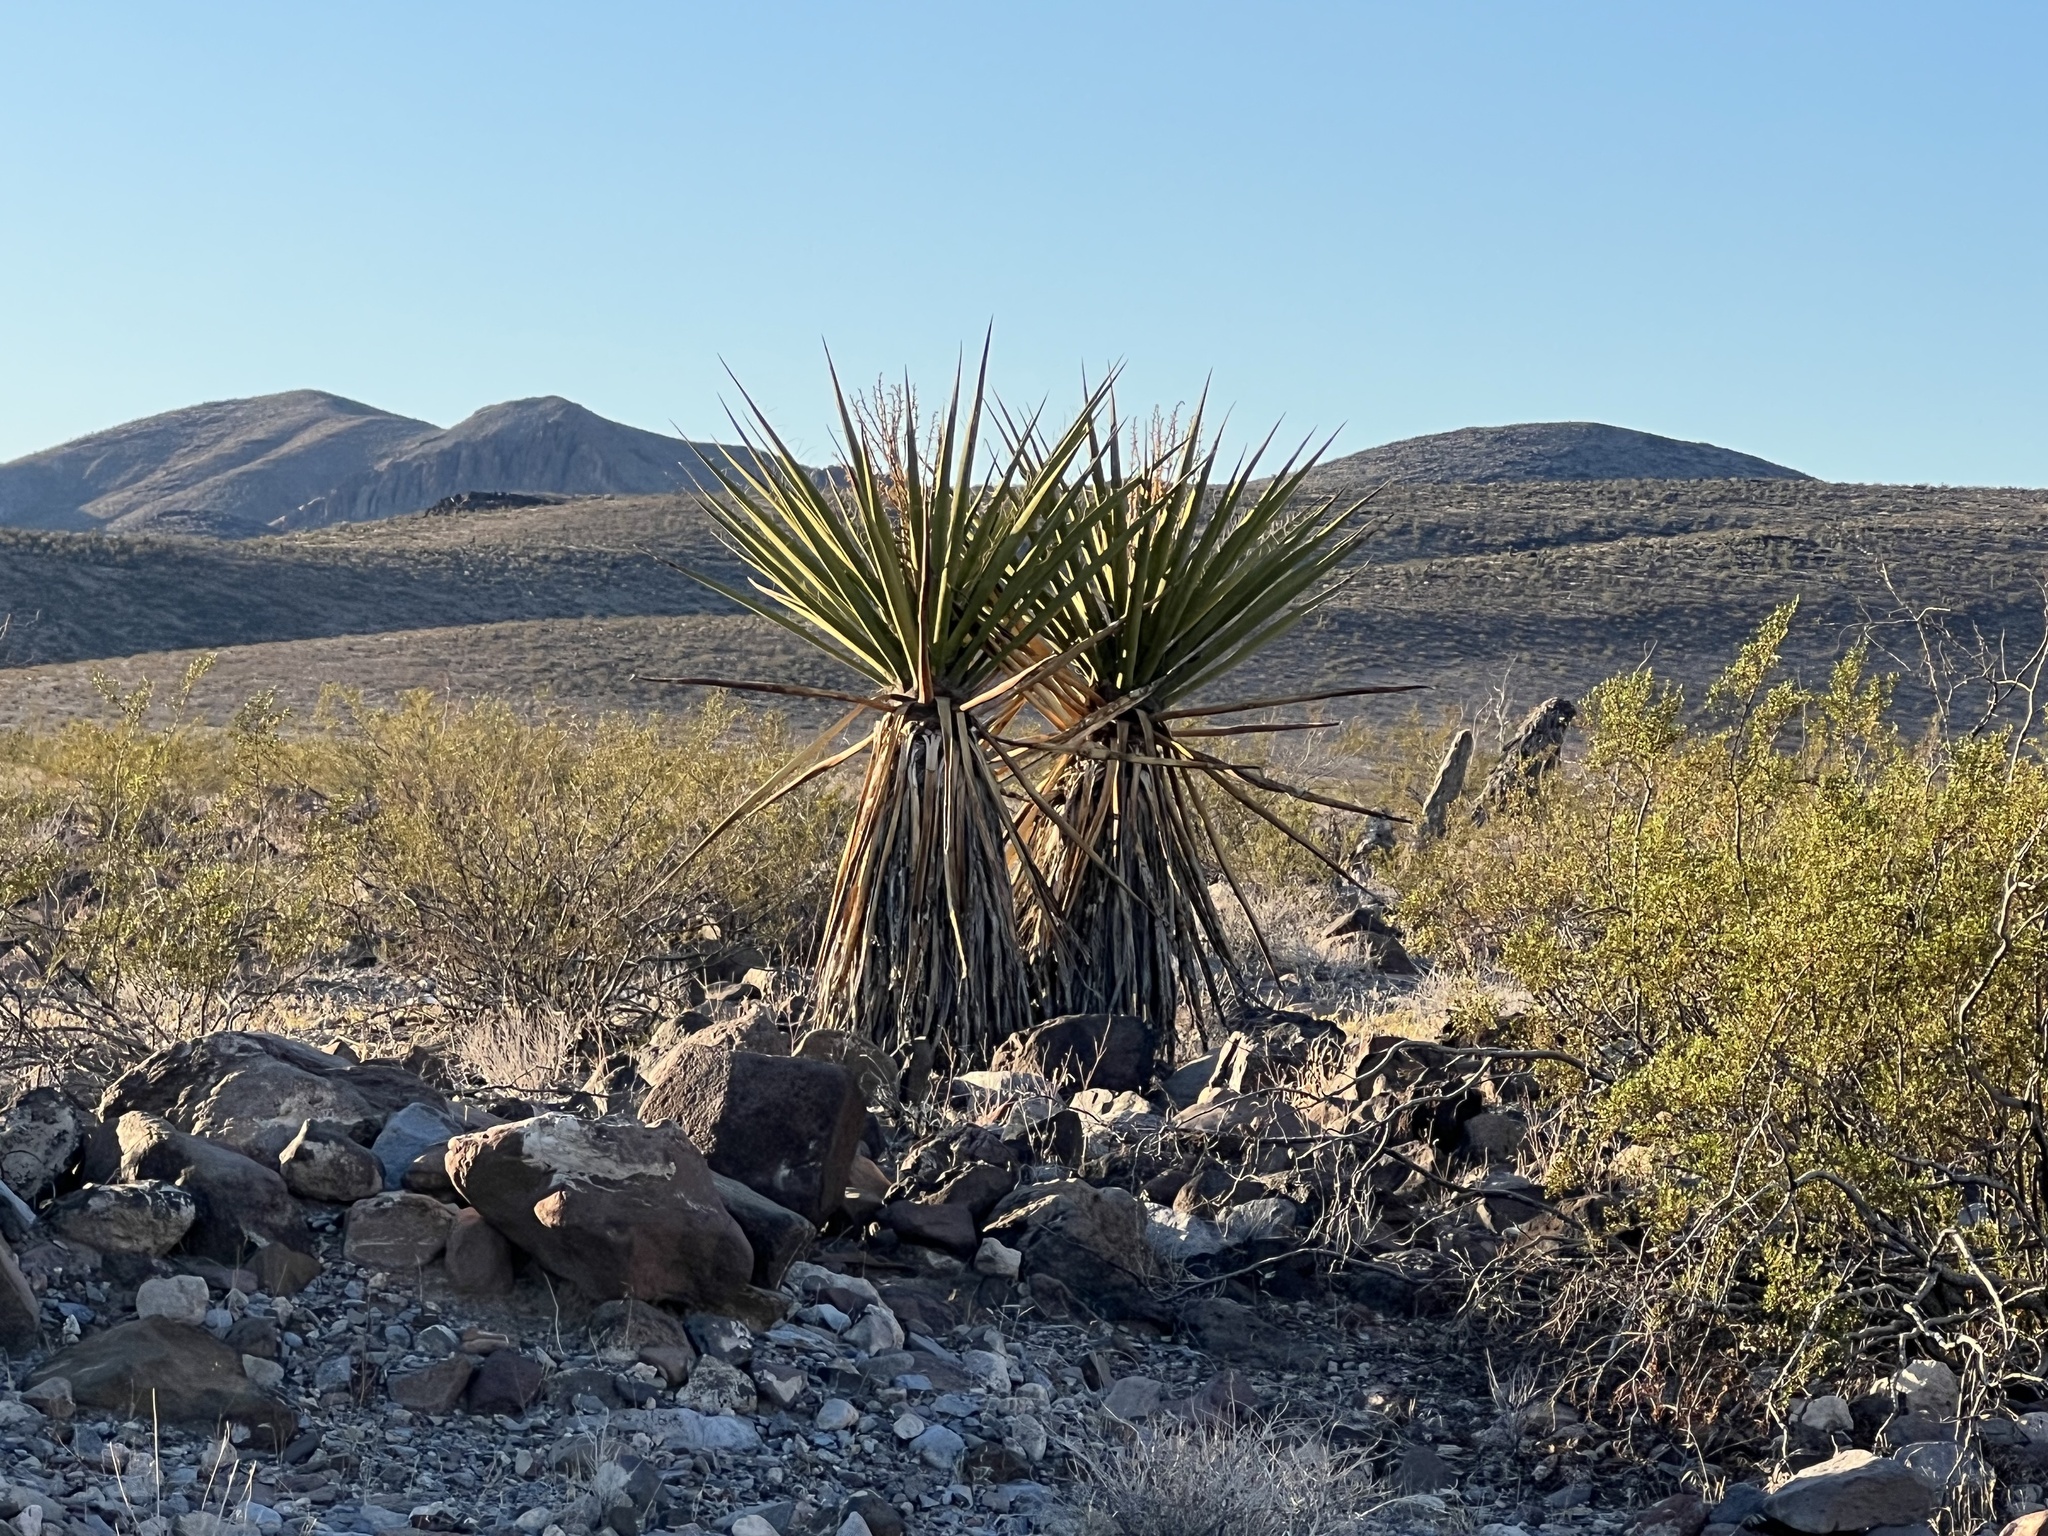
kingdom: Plantae
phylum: Tracheophyta
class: Liliopsida
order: Asparagales
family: Asparagaceae
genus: Yucca
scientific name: Yucca schidigera
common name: Mojave yucca
